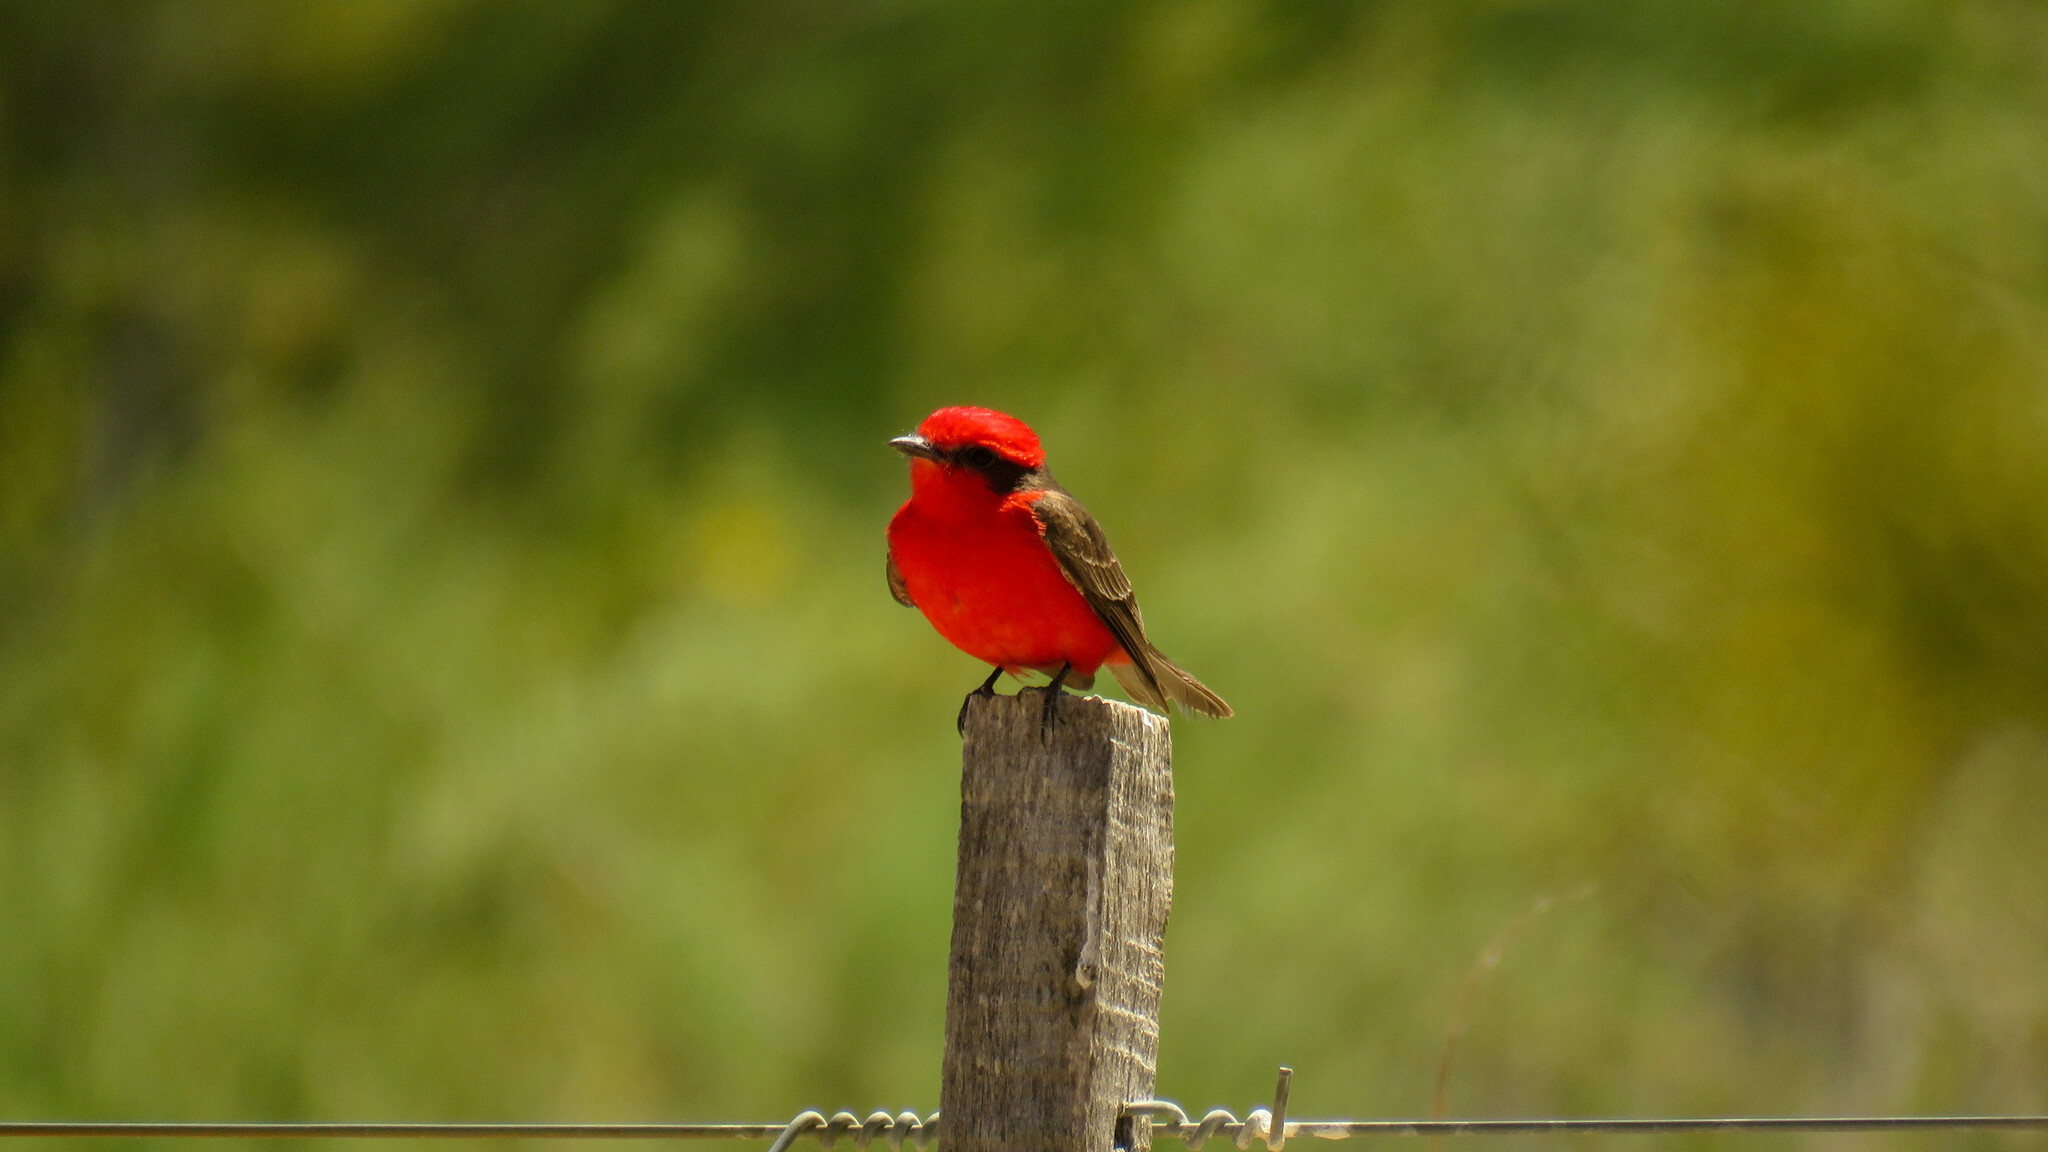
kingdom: Animalia
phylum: Chordata
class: Aves
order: Passeriformes
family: Tyrannidae
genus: Pyrocephalus
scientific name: Pyrocephalus rubinus
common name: Vermilion flycatcher
